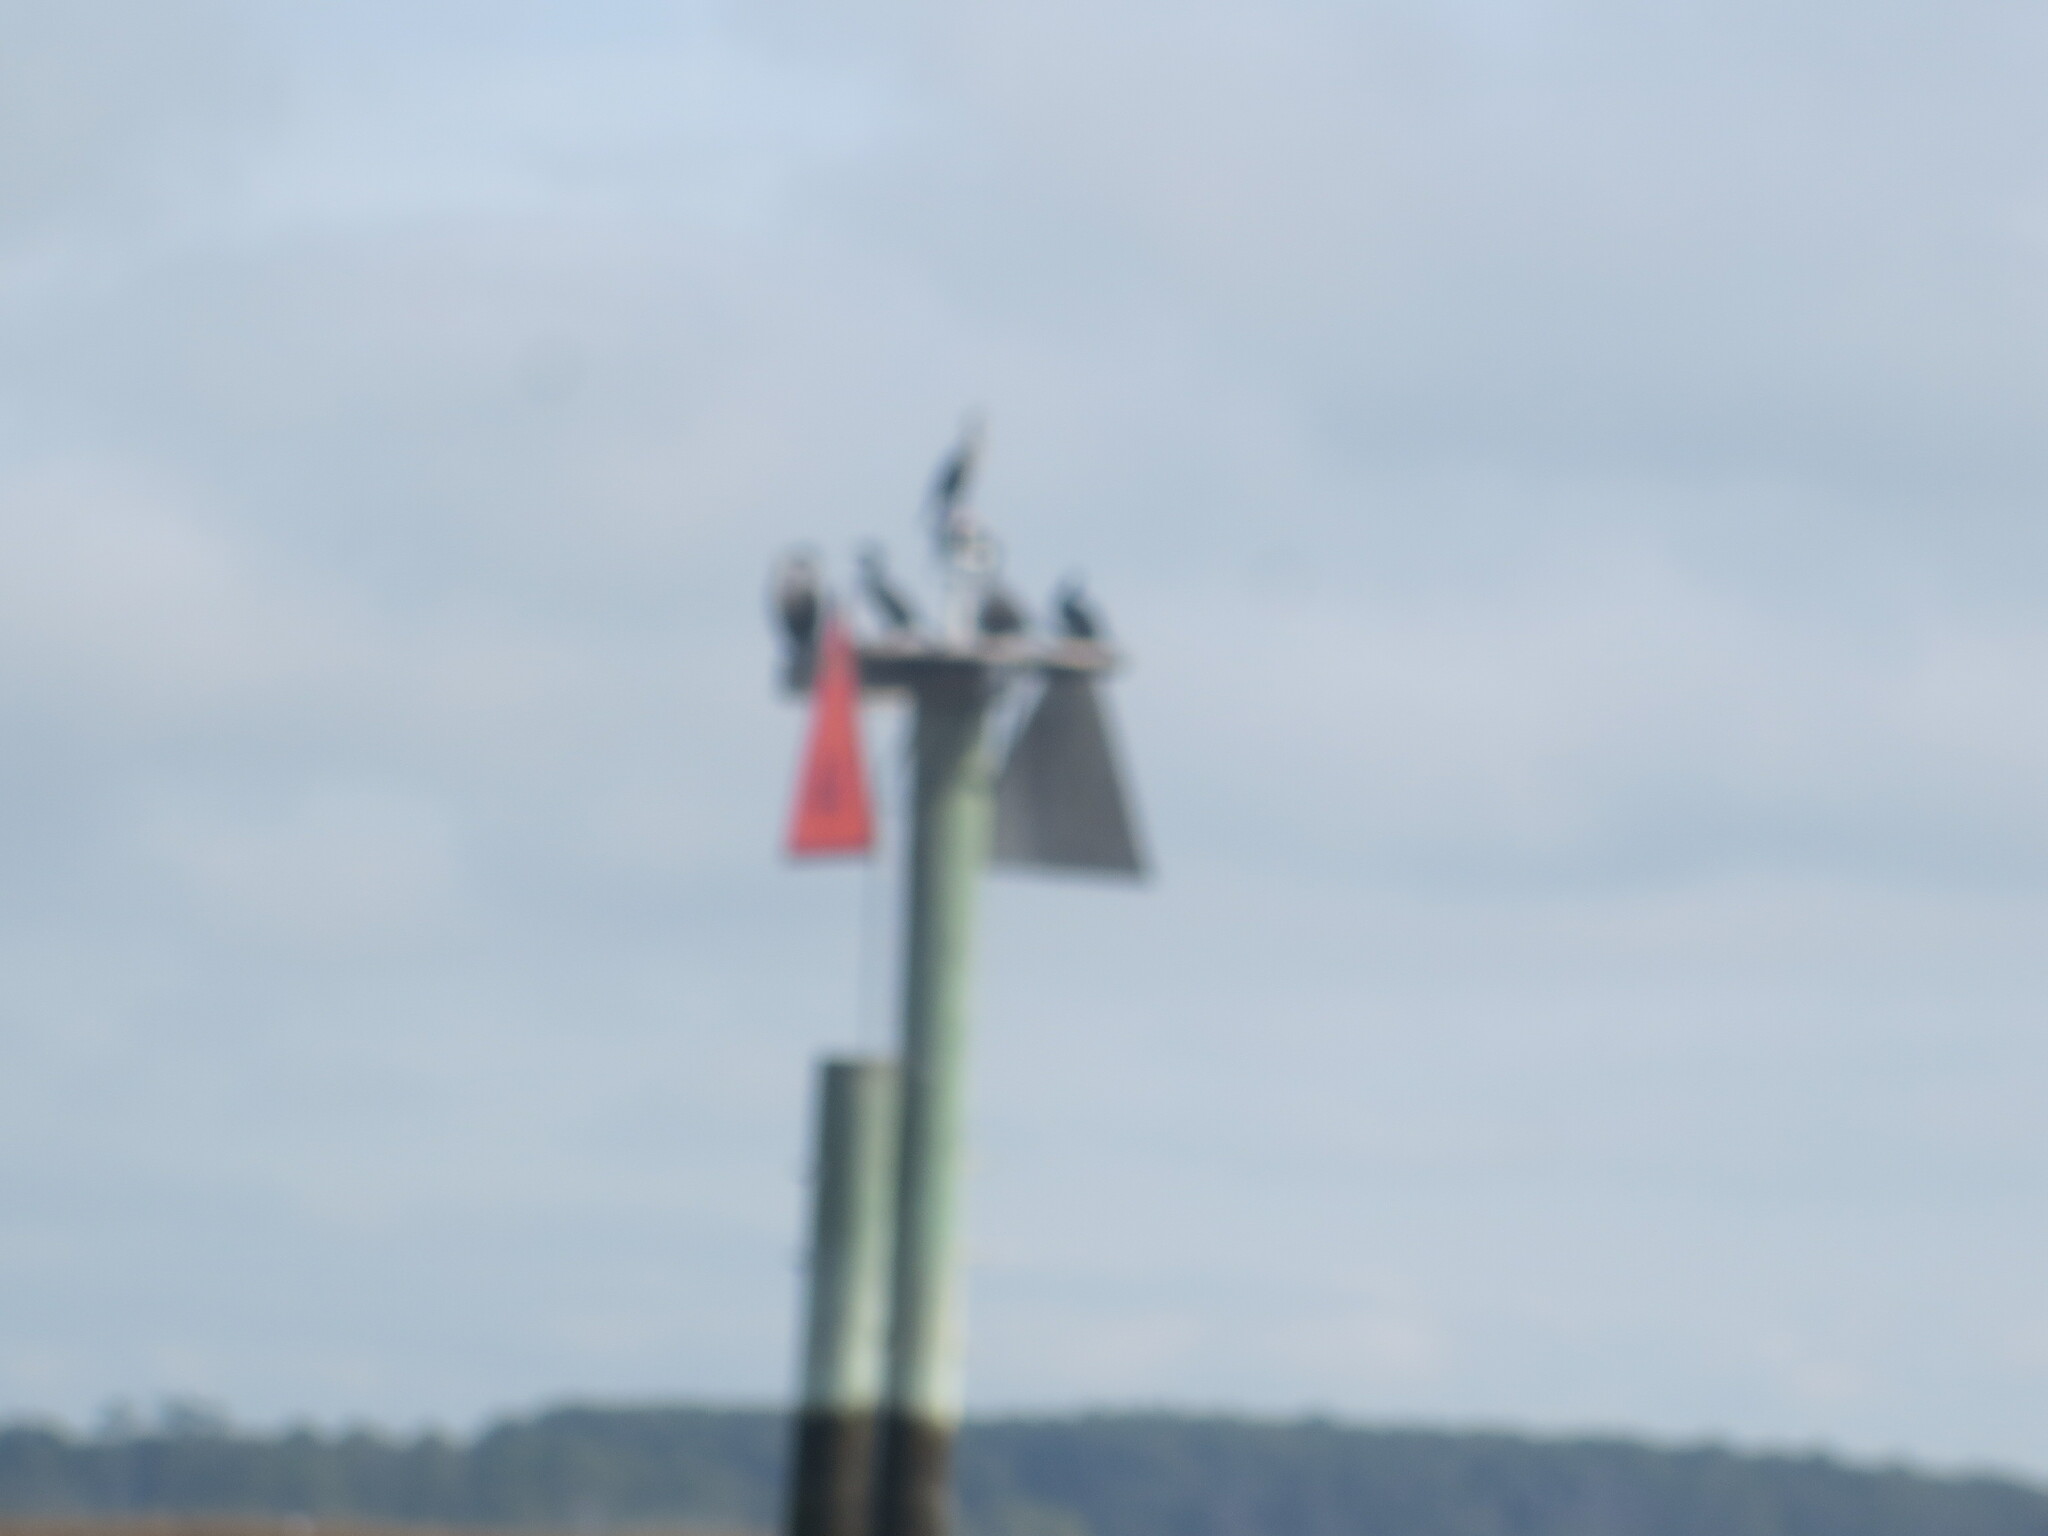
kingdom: Animalia
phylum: Chordata
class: Aves
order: Suliformes
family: Phalacrocoracidae
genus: Phalacrocorax
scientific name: Phalacrocorax auritus
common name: Double-crested cormorant
